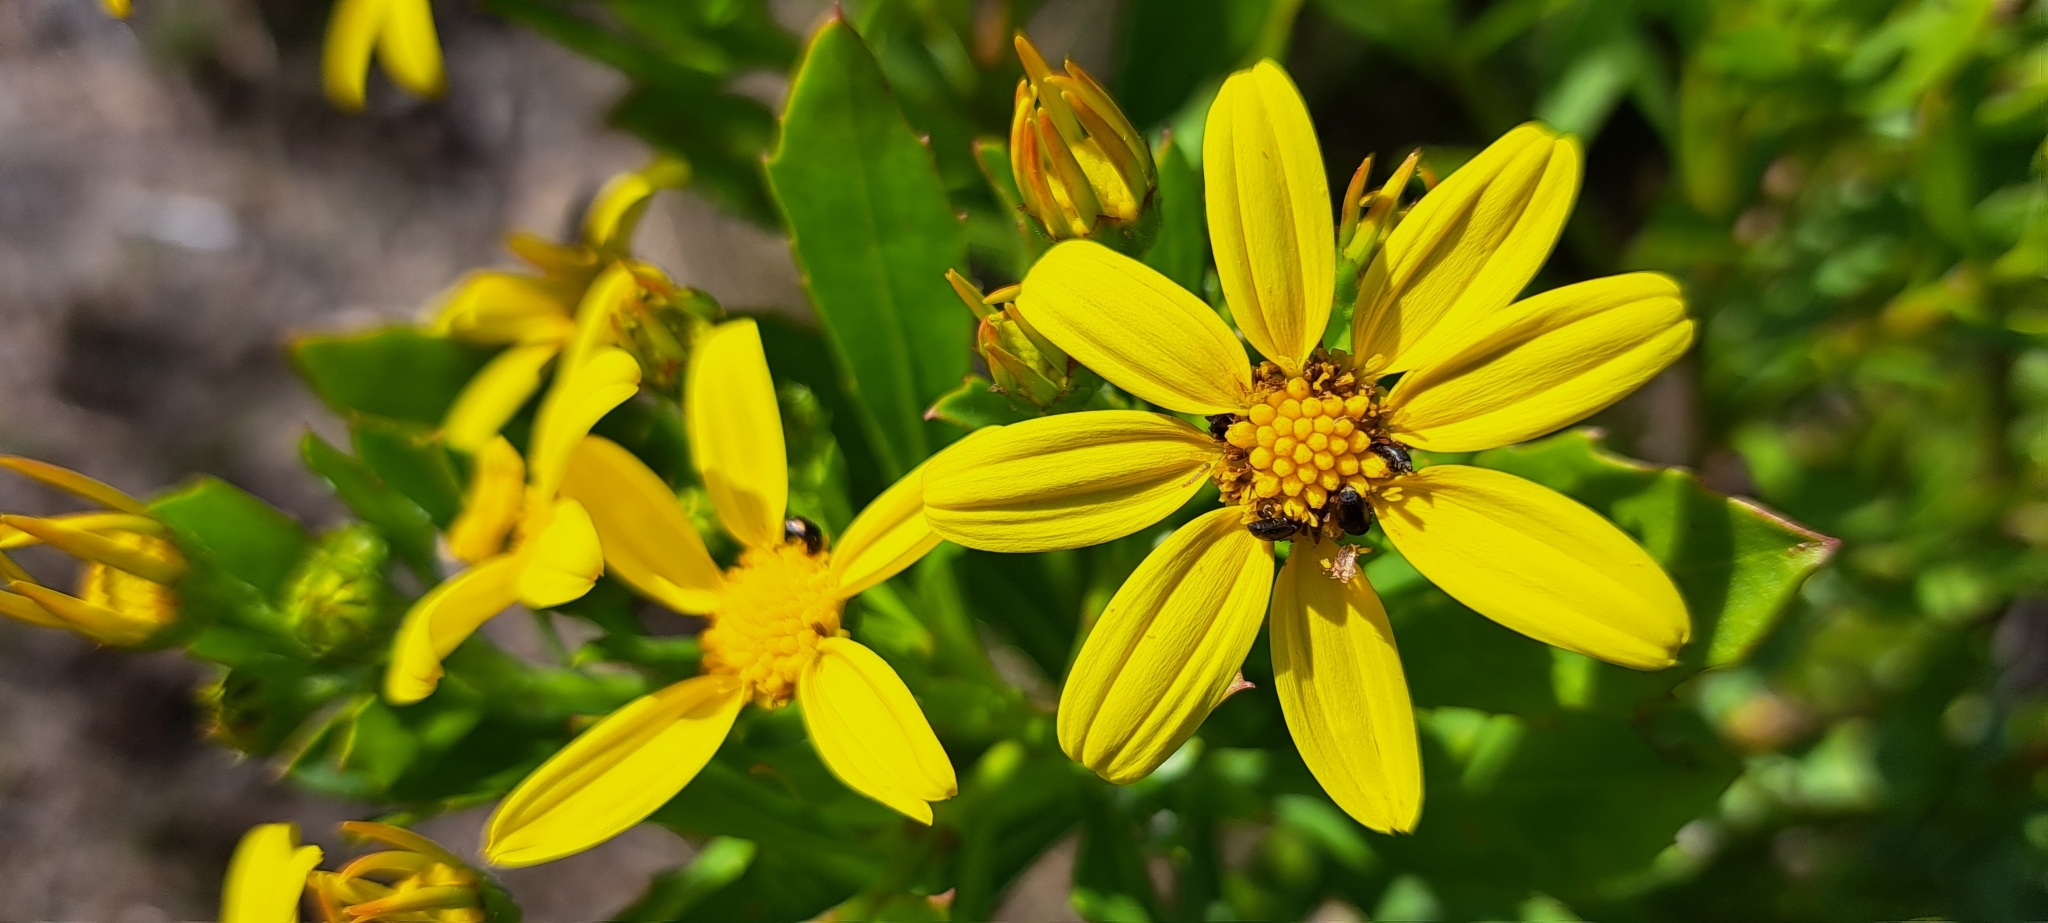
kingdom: Plantae
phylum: Tracheophyta
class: Magnoliopsida
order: Asterales
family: Asteraceae
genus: Osteospermum
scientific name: Osteospermum moniliferum
